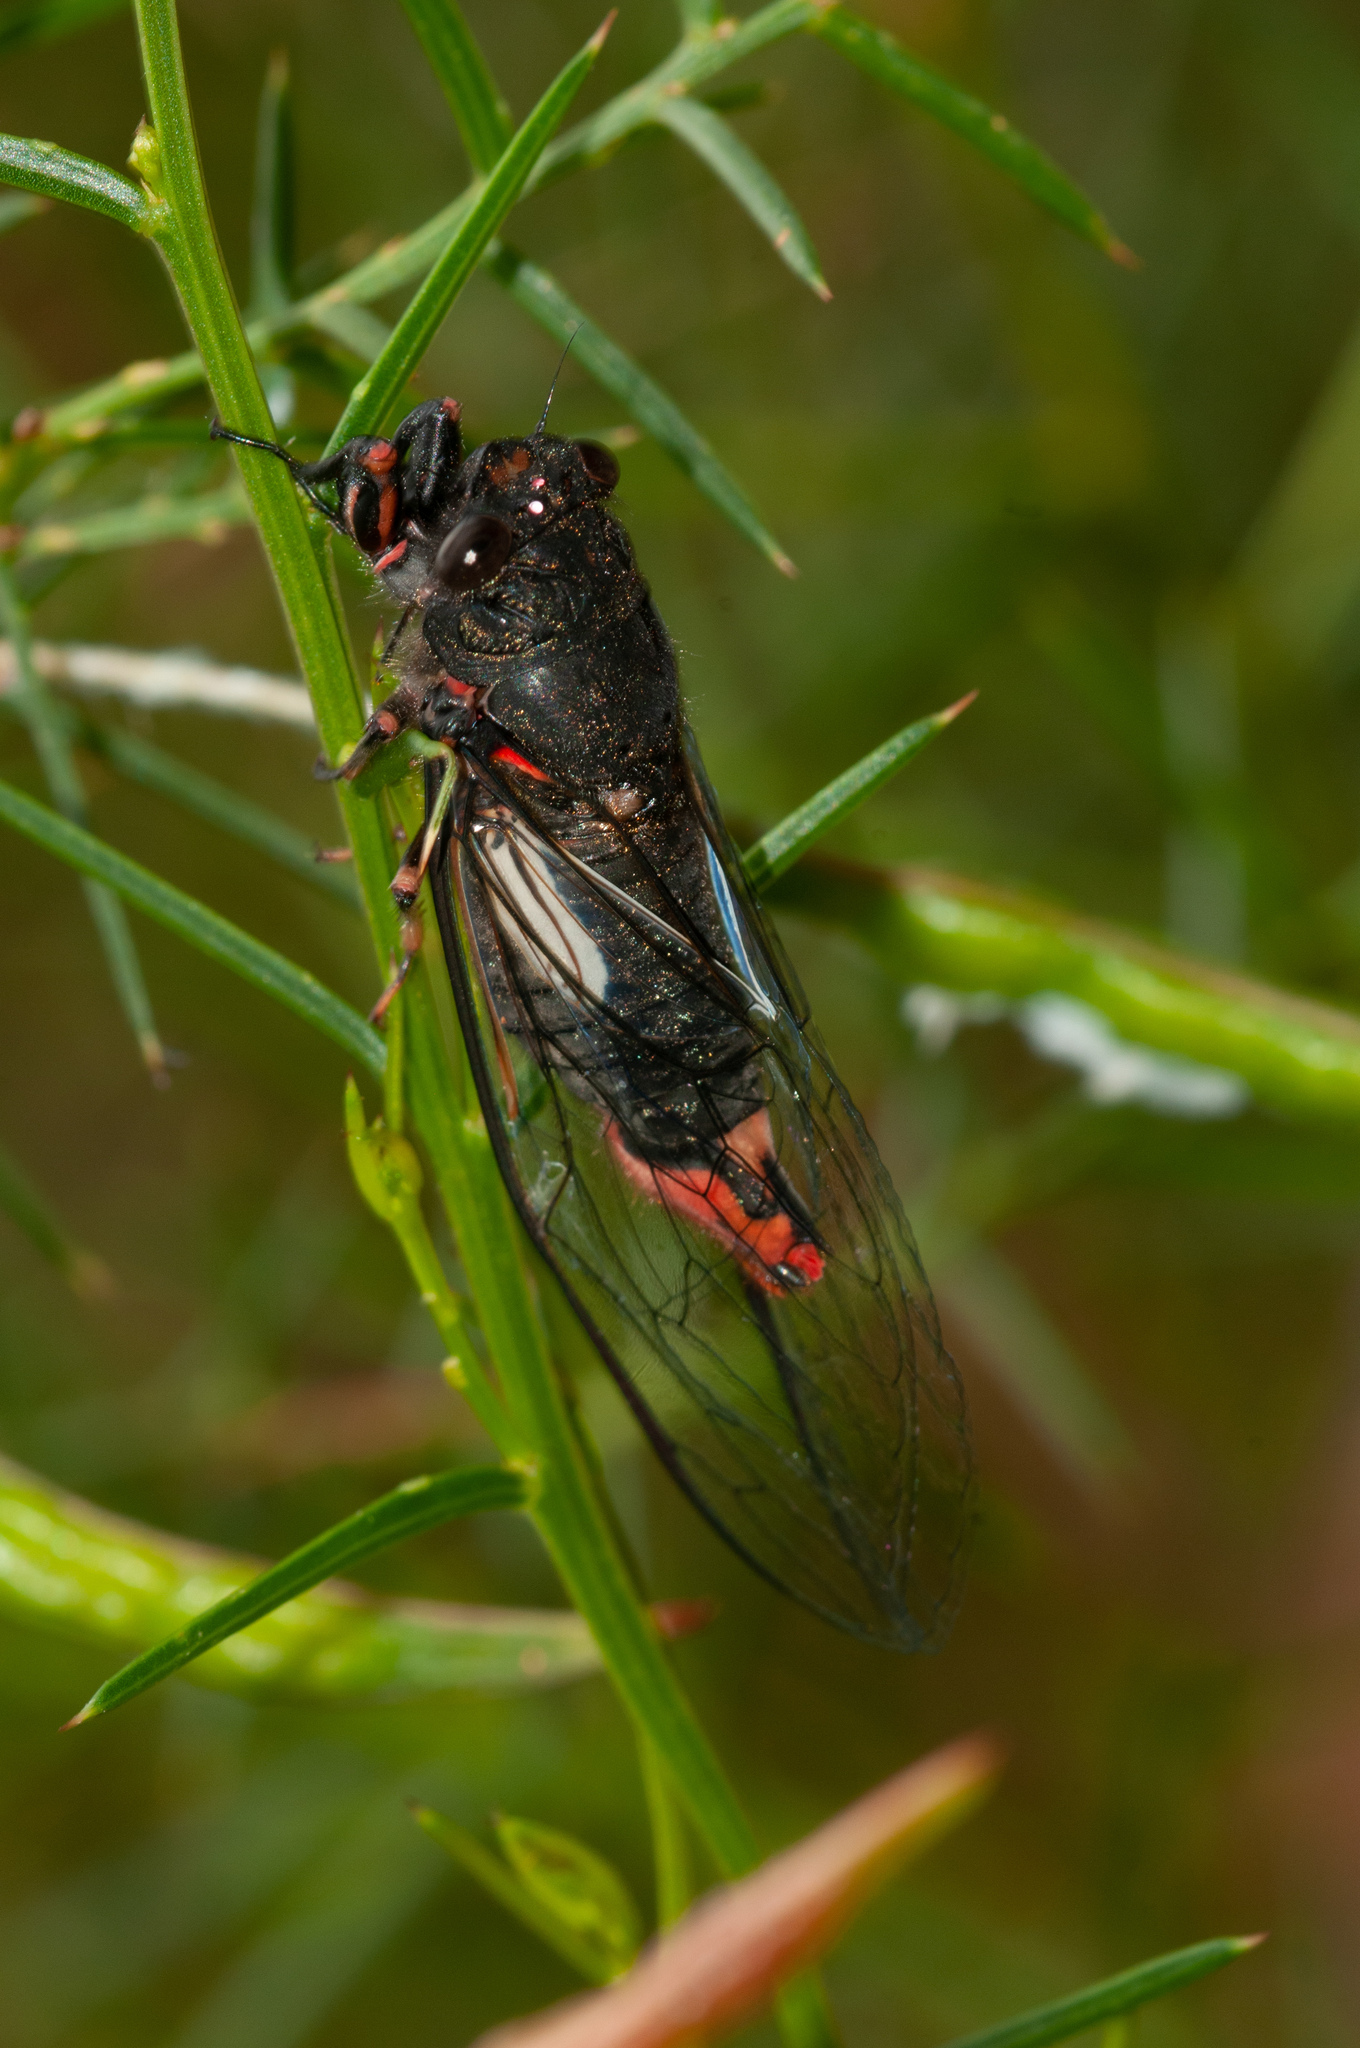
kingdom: Animalia
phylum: Arthropoda
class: Insecta
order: Hemiptera
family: Cicadidae
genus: Yoyetta
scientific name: Yoyetta kershawi
